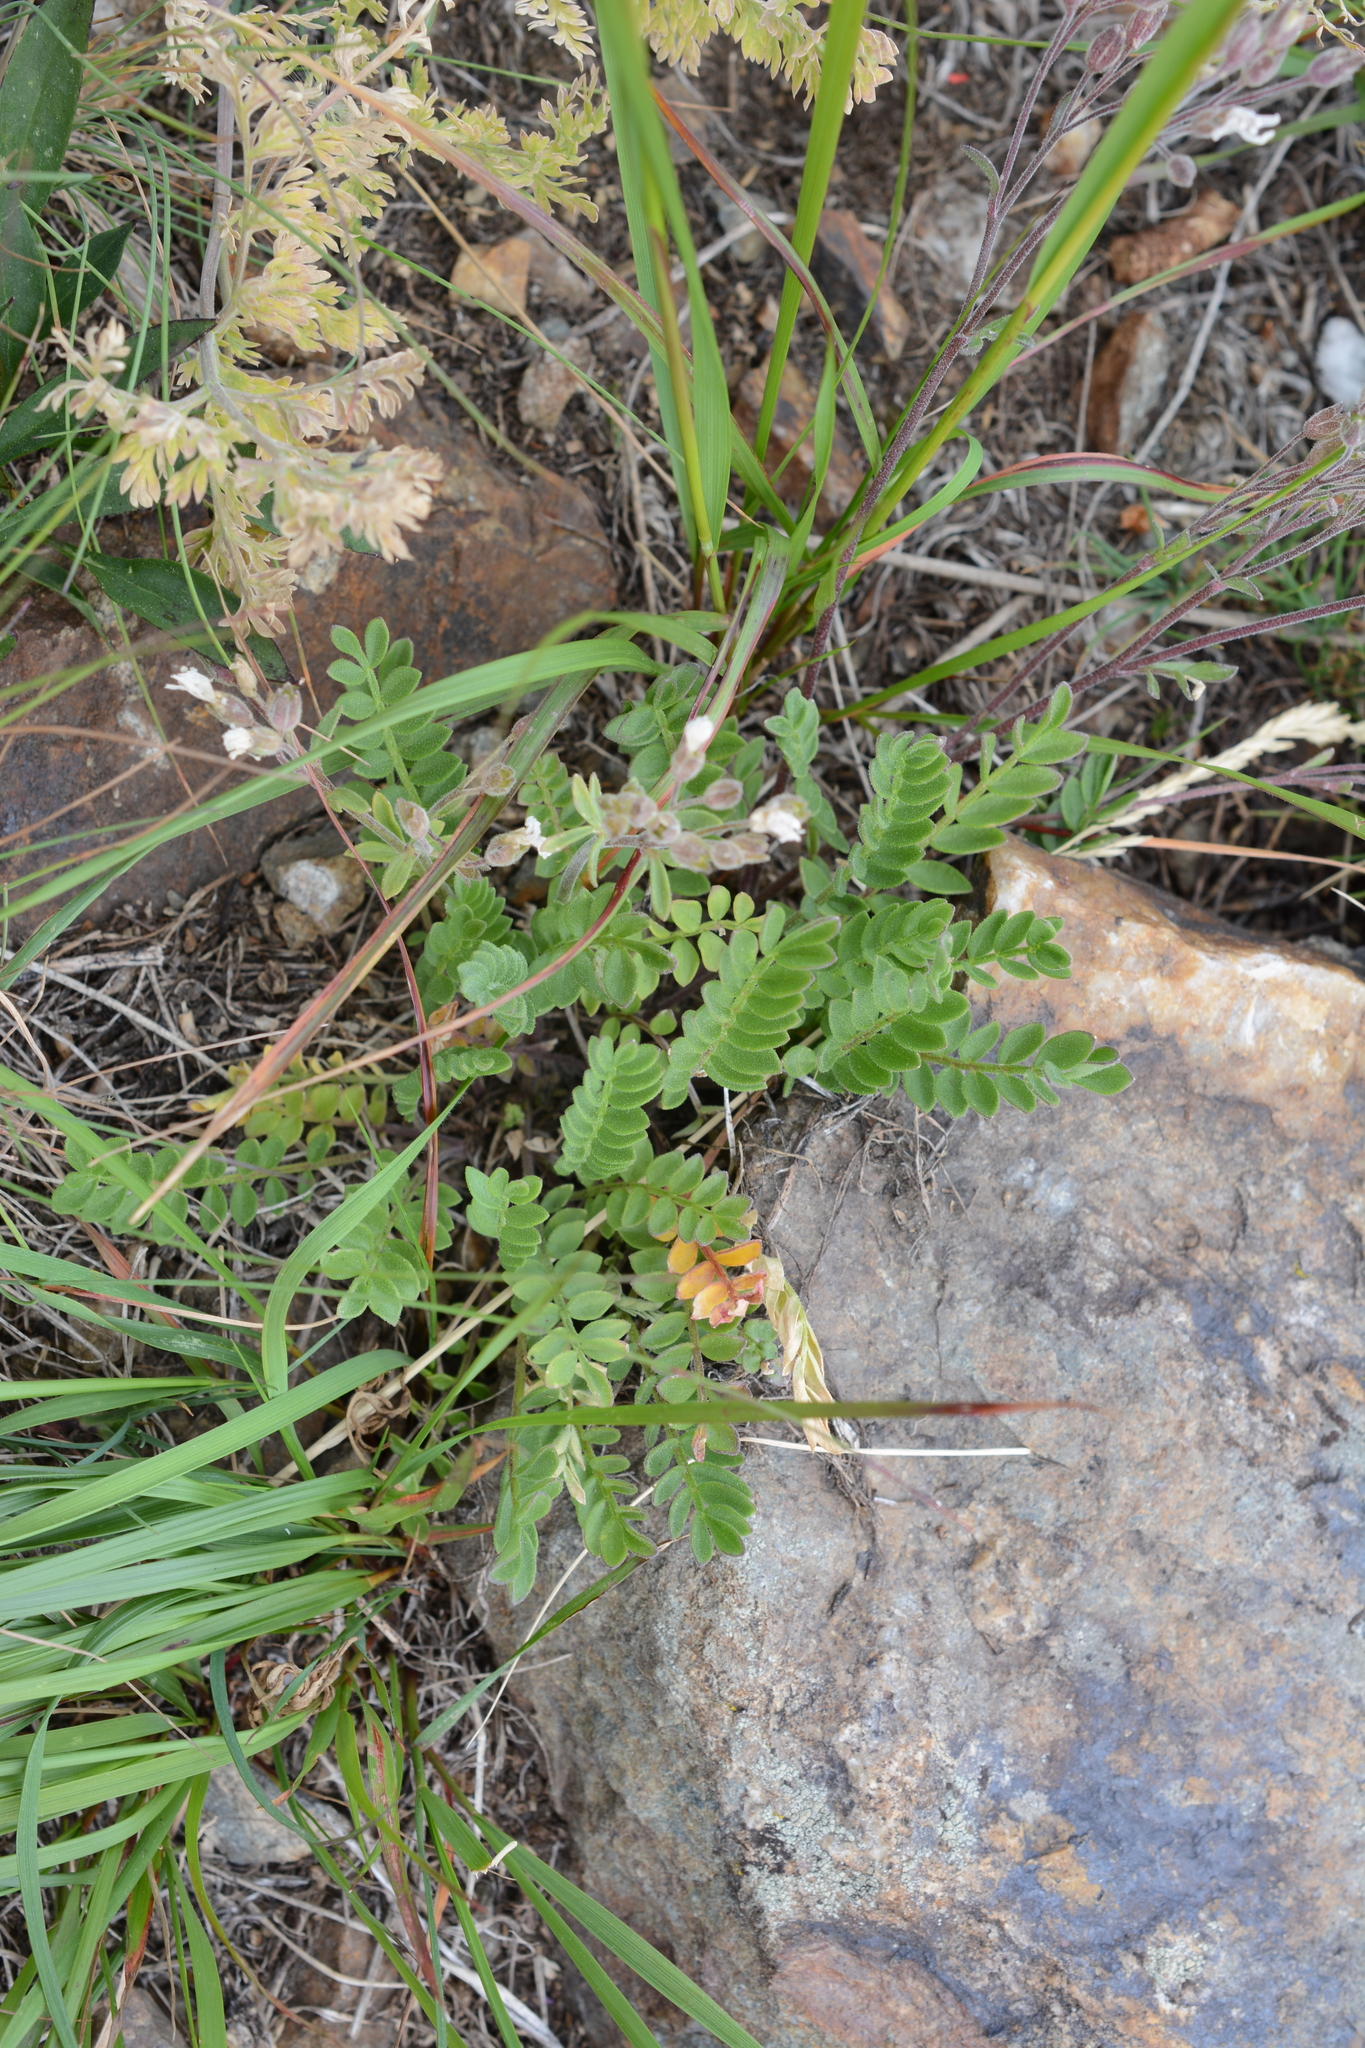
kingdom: Plantae
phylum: Tracheophyta
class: Magnoliopsida
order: Ericales
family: Polemoniaceae
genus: Polemonium
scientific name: Polemonium pulcherrimum
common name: Short jacob's-ladder
